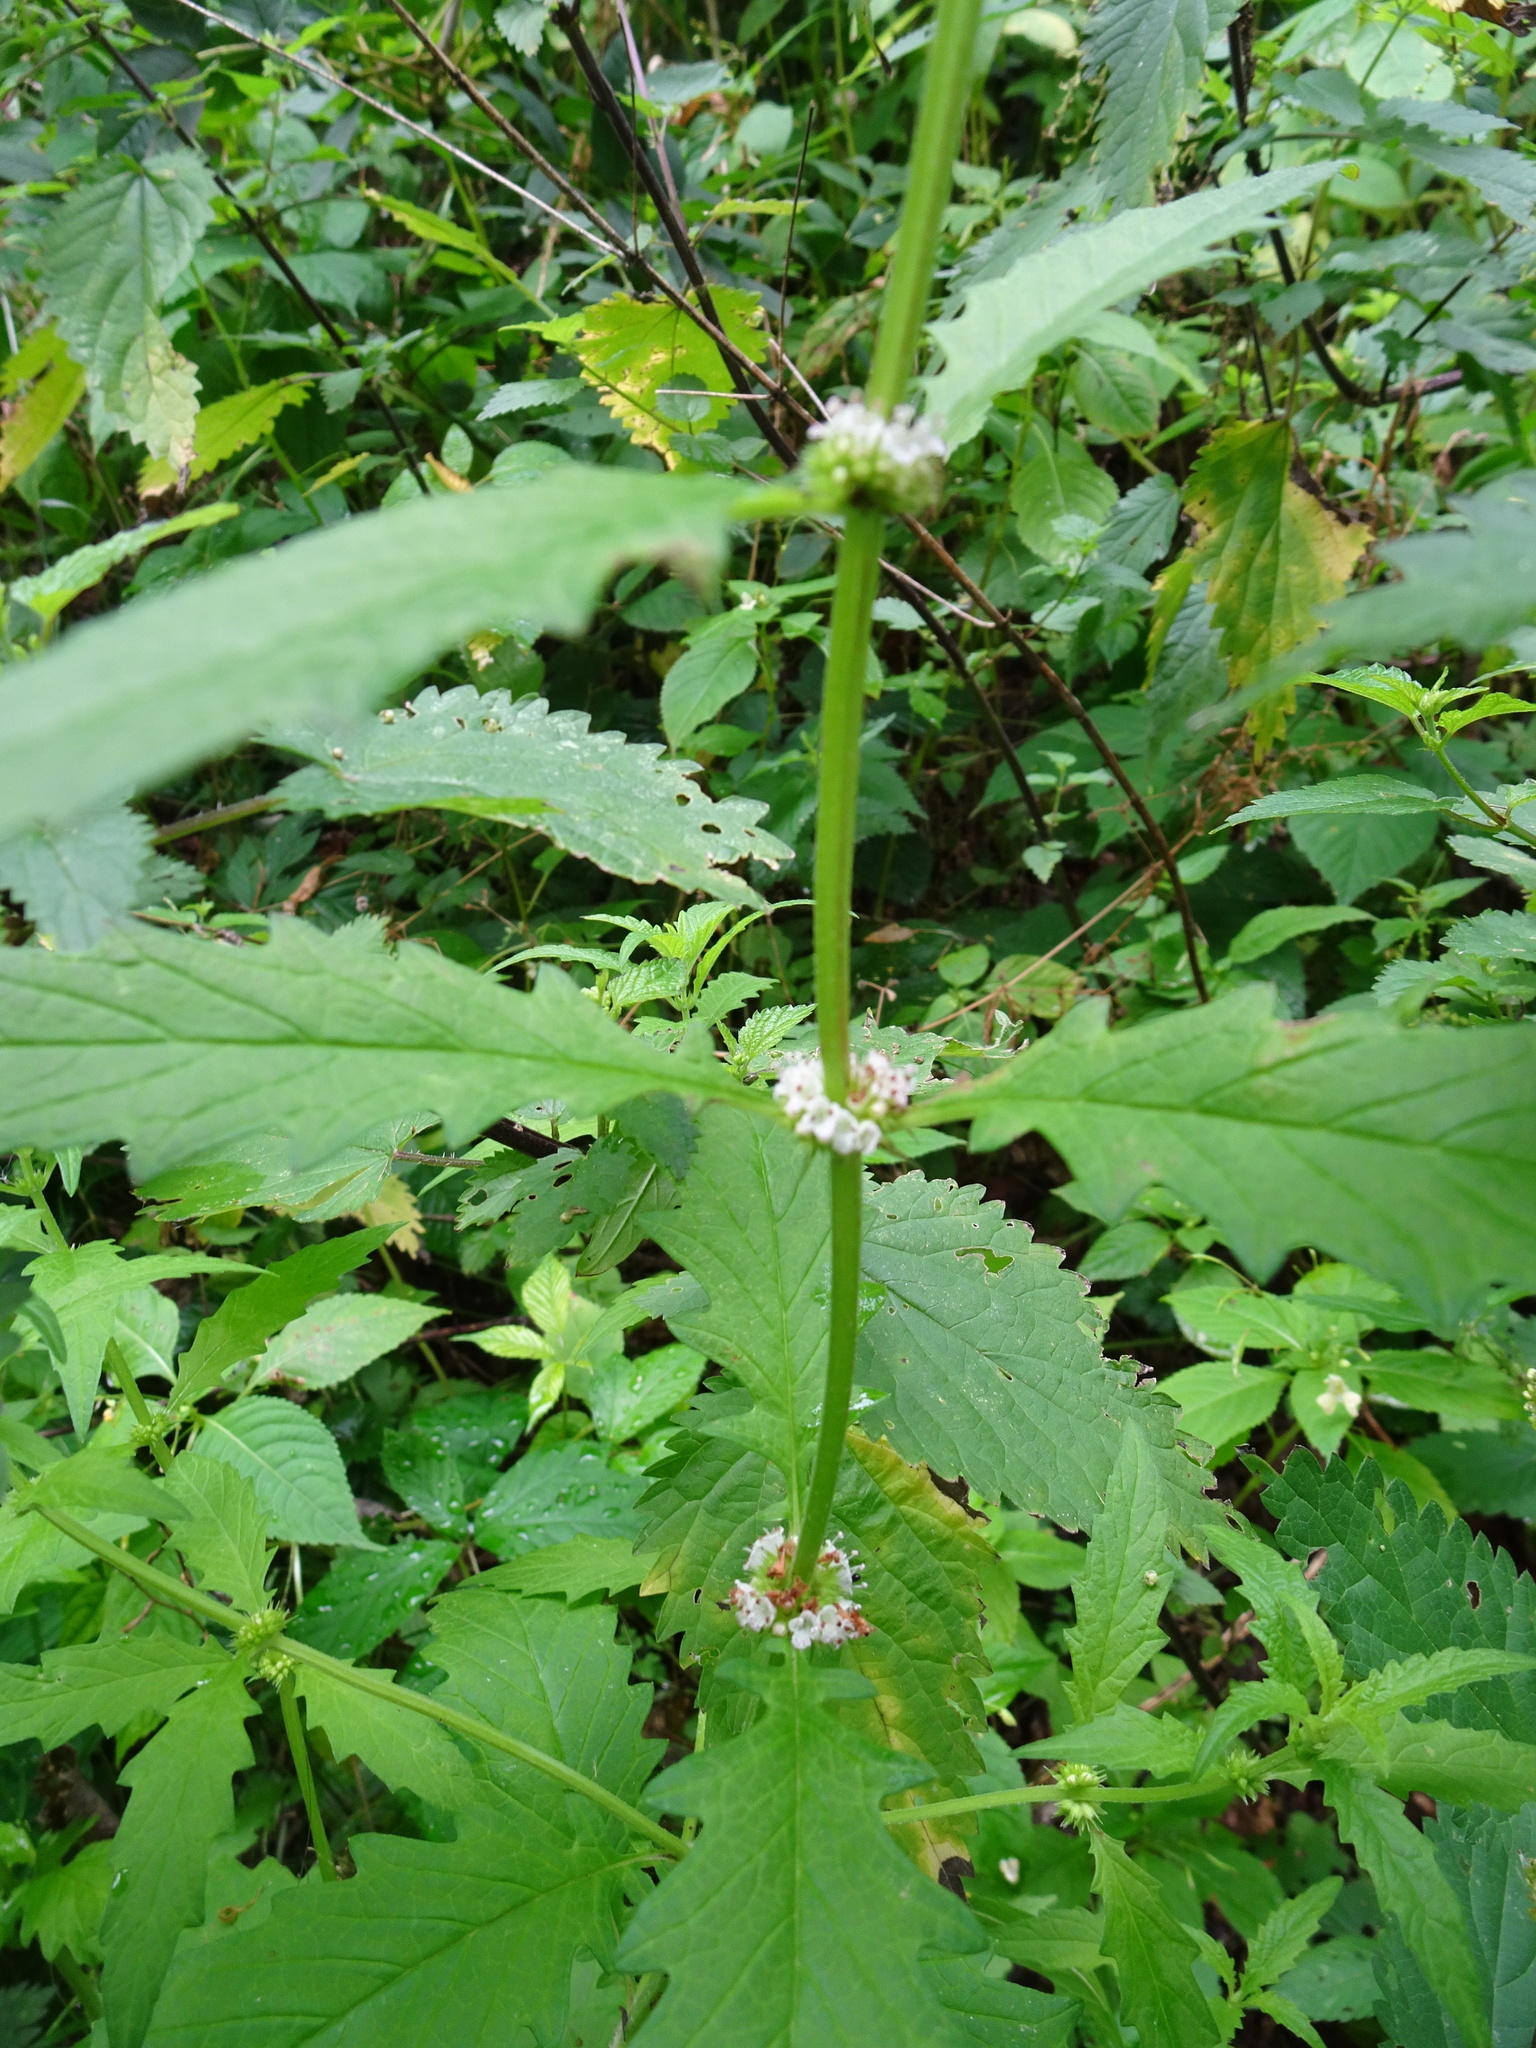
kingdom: Plantae
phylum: Tracheophyta
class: Magnoliopsida
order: Lamiales
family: Lamiaceae
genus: Lycopus
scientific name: Lycopus europaeus
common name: European bugleweed
